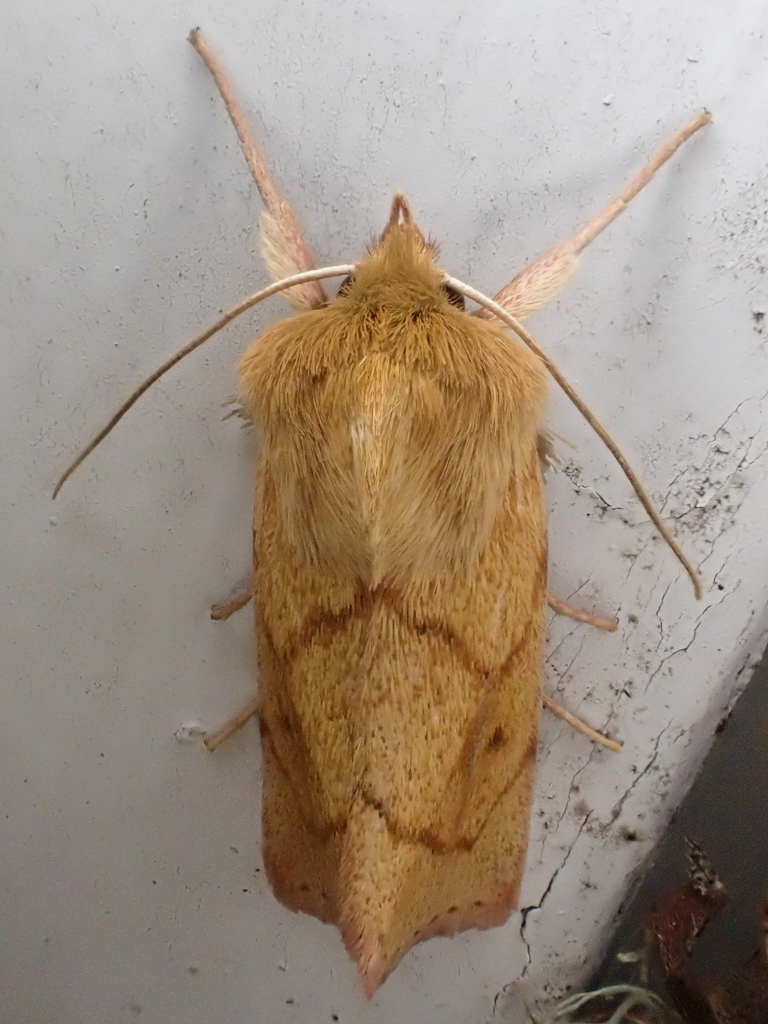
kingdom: Animalia
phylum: Arthropoda
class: Insecta
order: Lepidoptera
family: Noctuidae
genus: Zosteropoda
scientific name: Zosteropoda hirtipes
